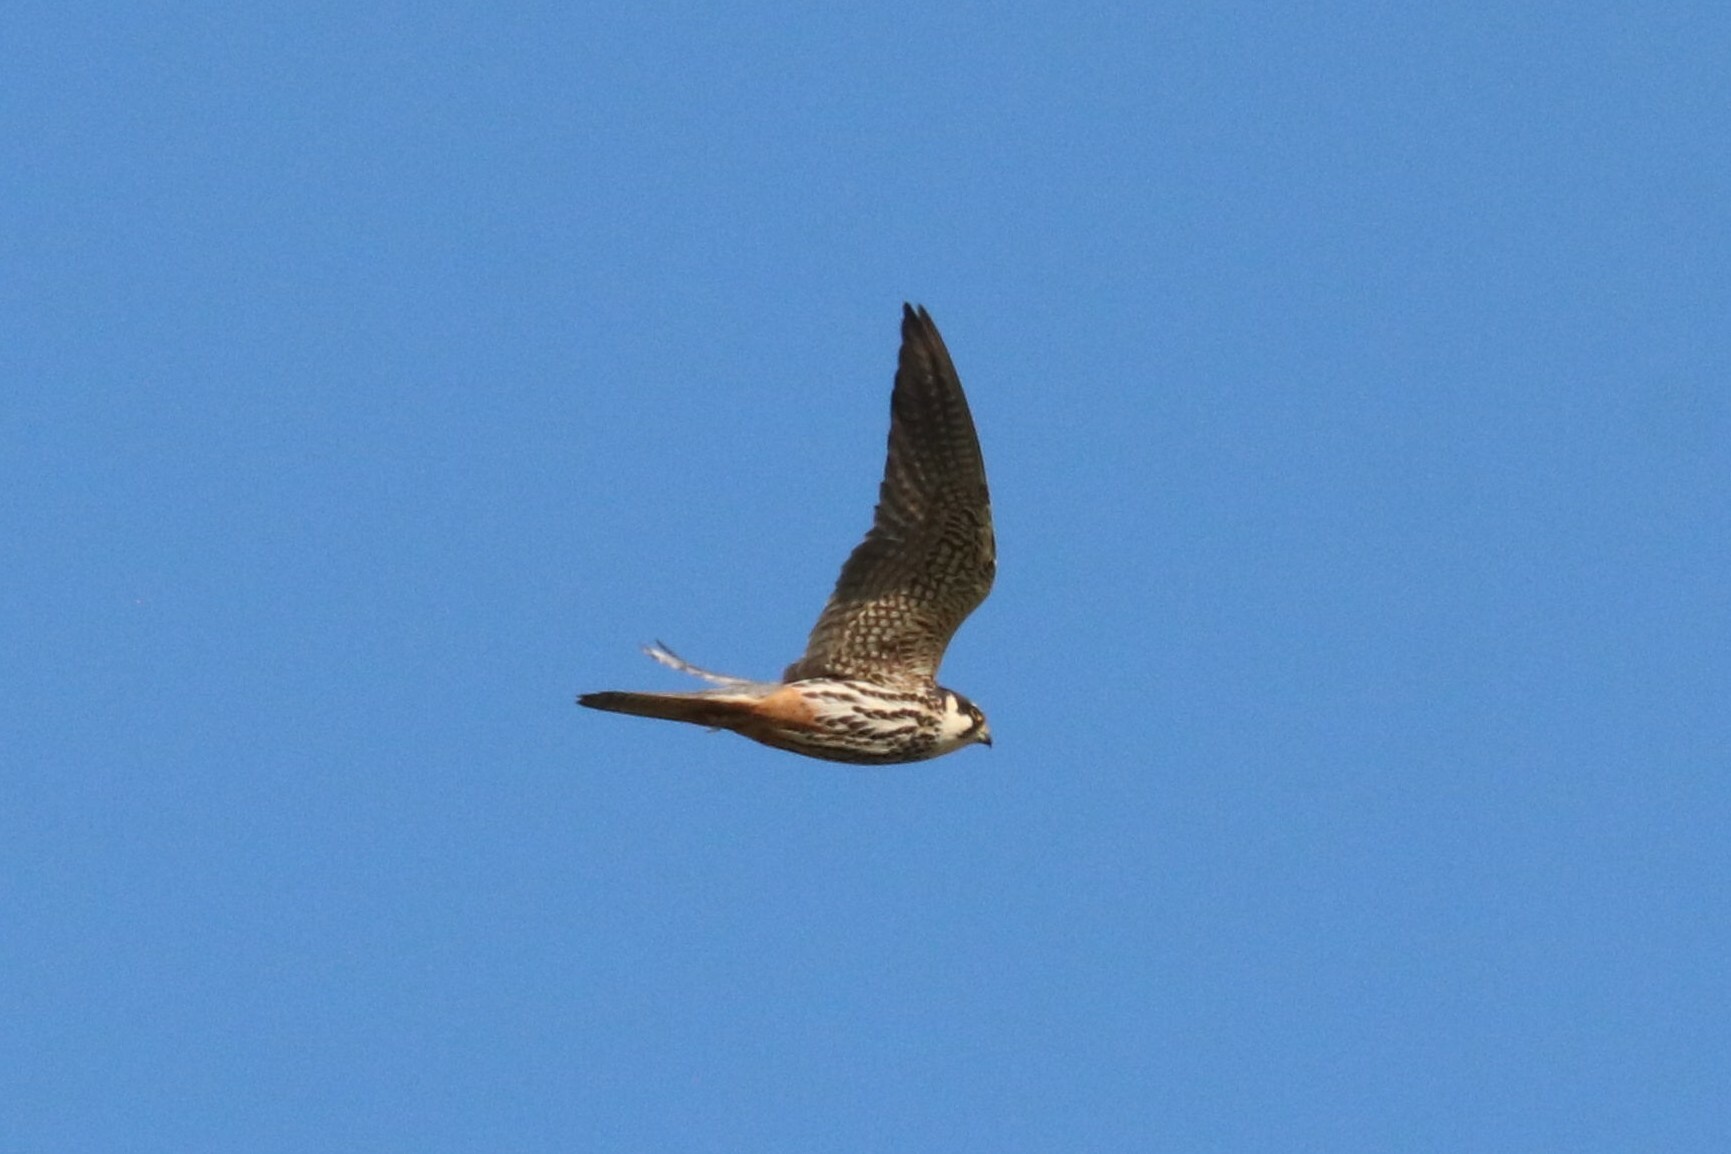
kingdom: Animalia
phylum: Chordata
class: Aves
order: Falconiformes
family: Falconidae
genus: Falco
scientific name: Falco subbuteo
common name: Eurasian hobby
